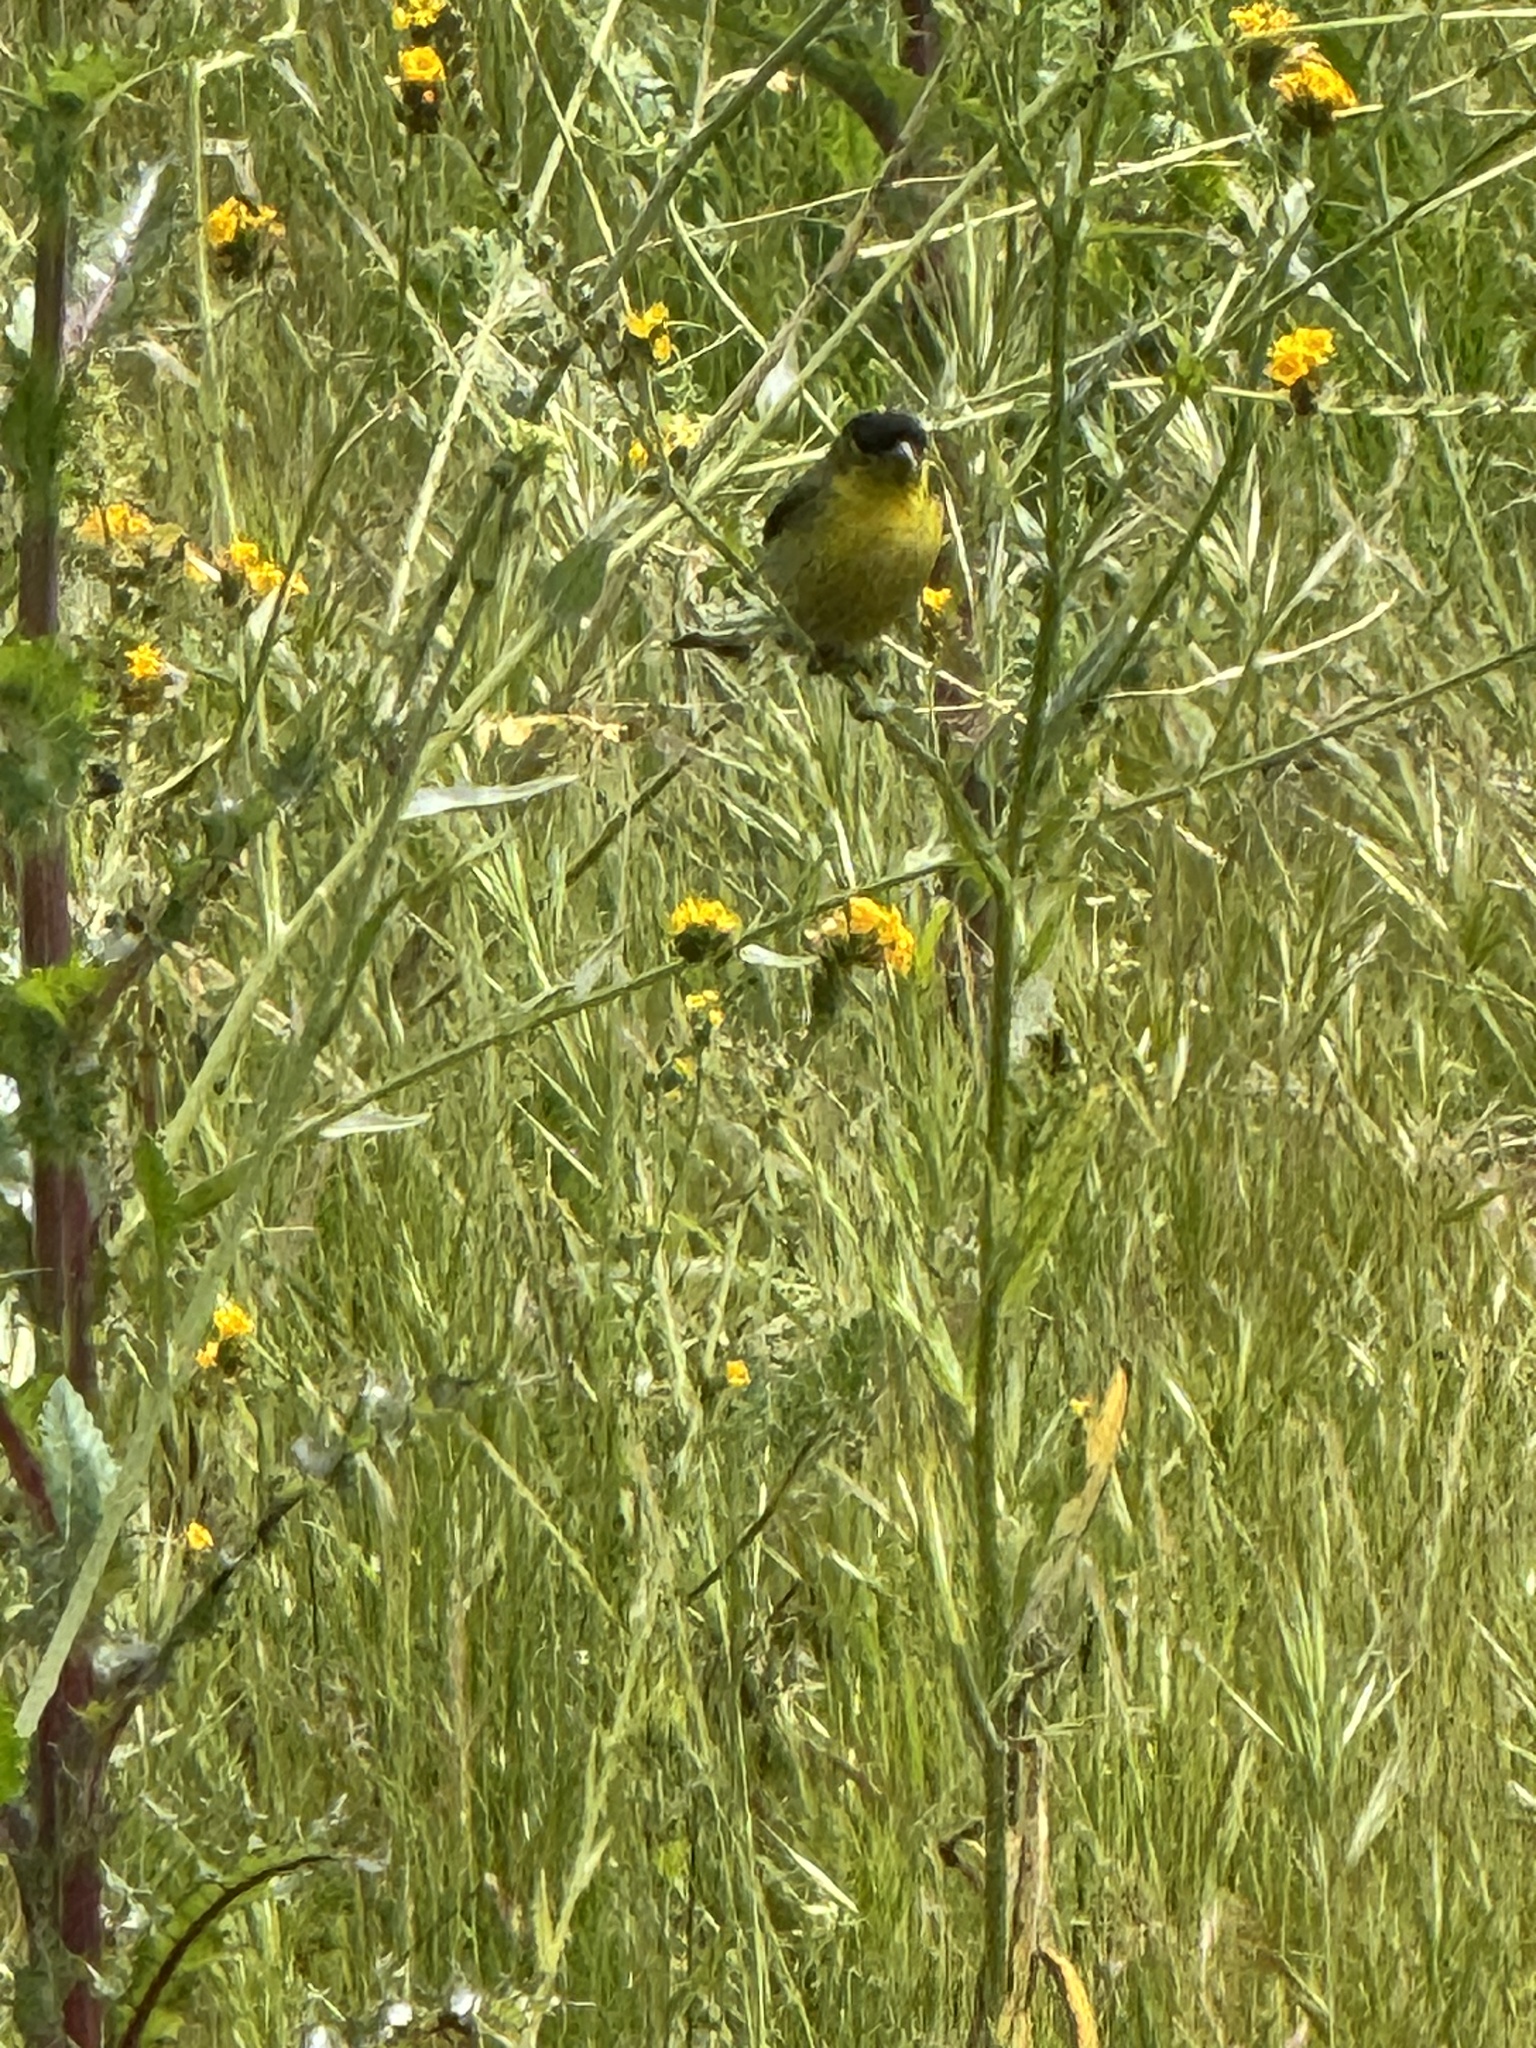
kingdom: Animalia
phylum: Chordata
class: Aves
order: Passeriformes
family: Fringillidae
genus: Spinus
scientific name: Spinus psaltria
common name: Lesser goldfinch
